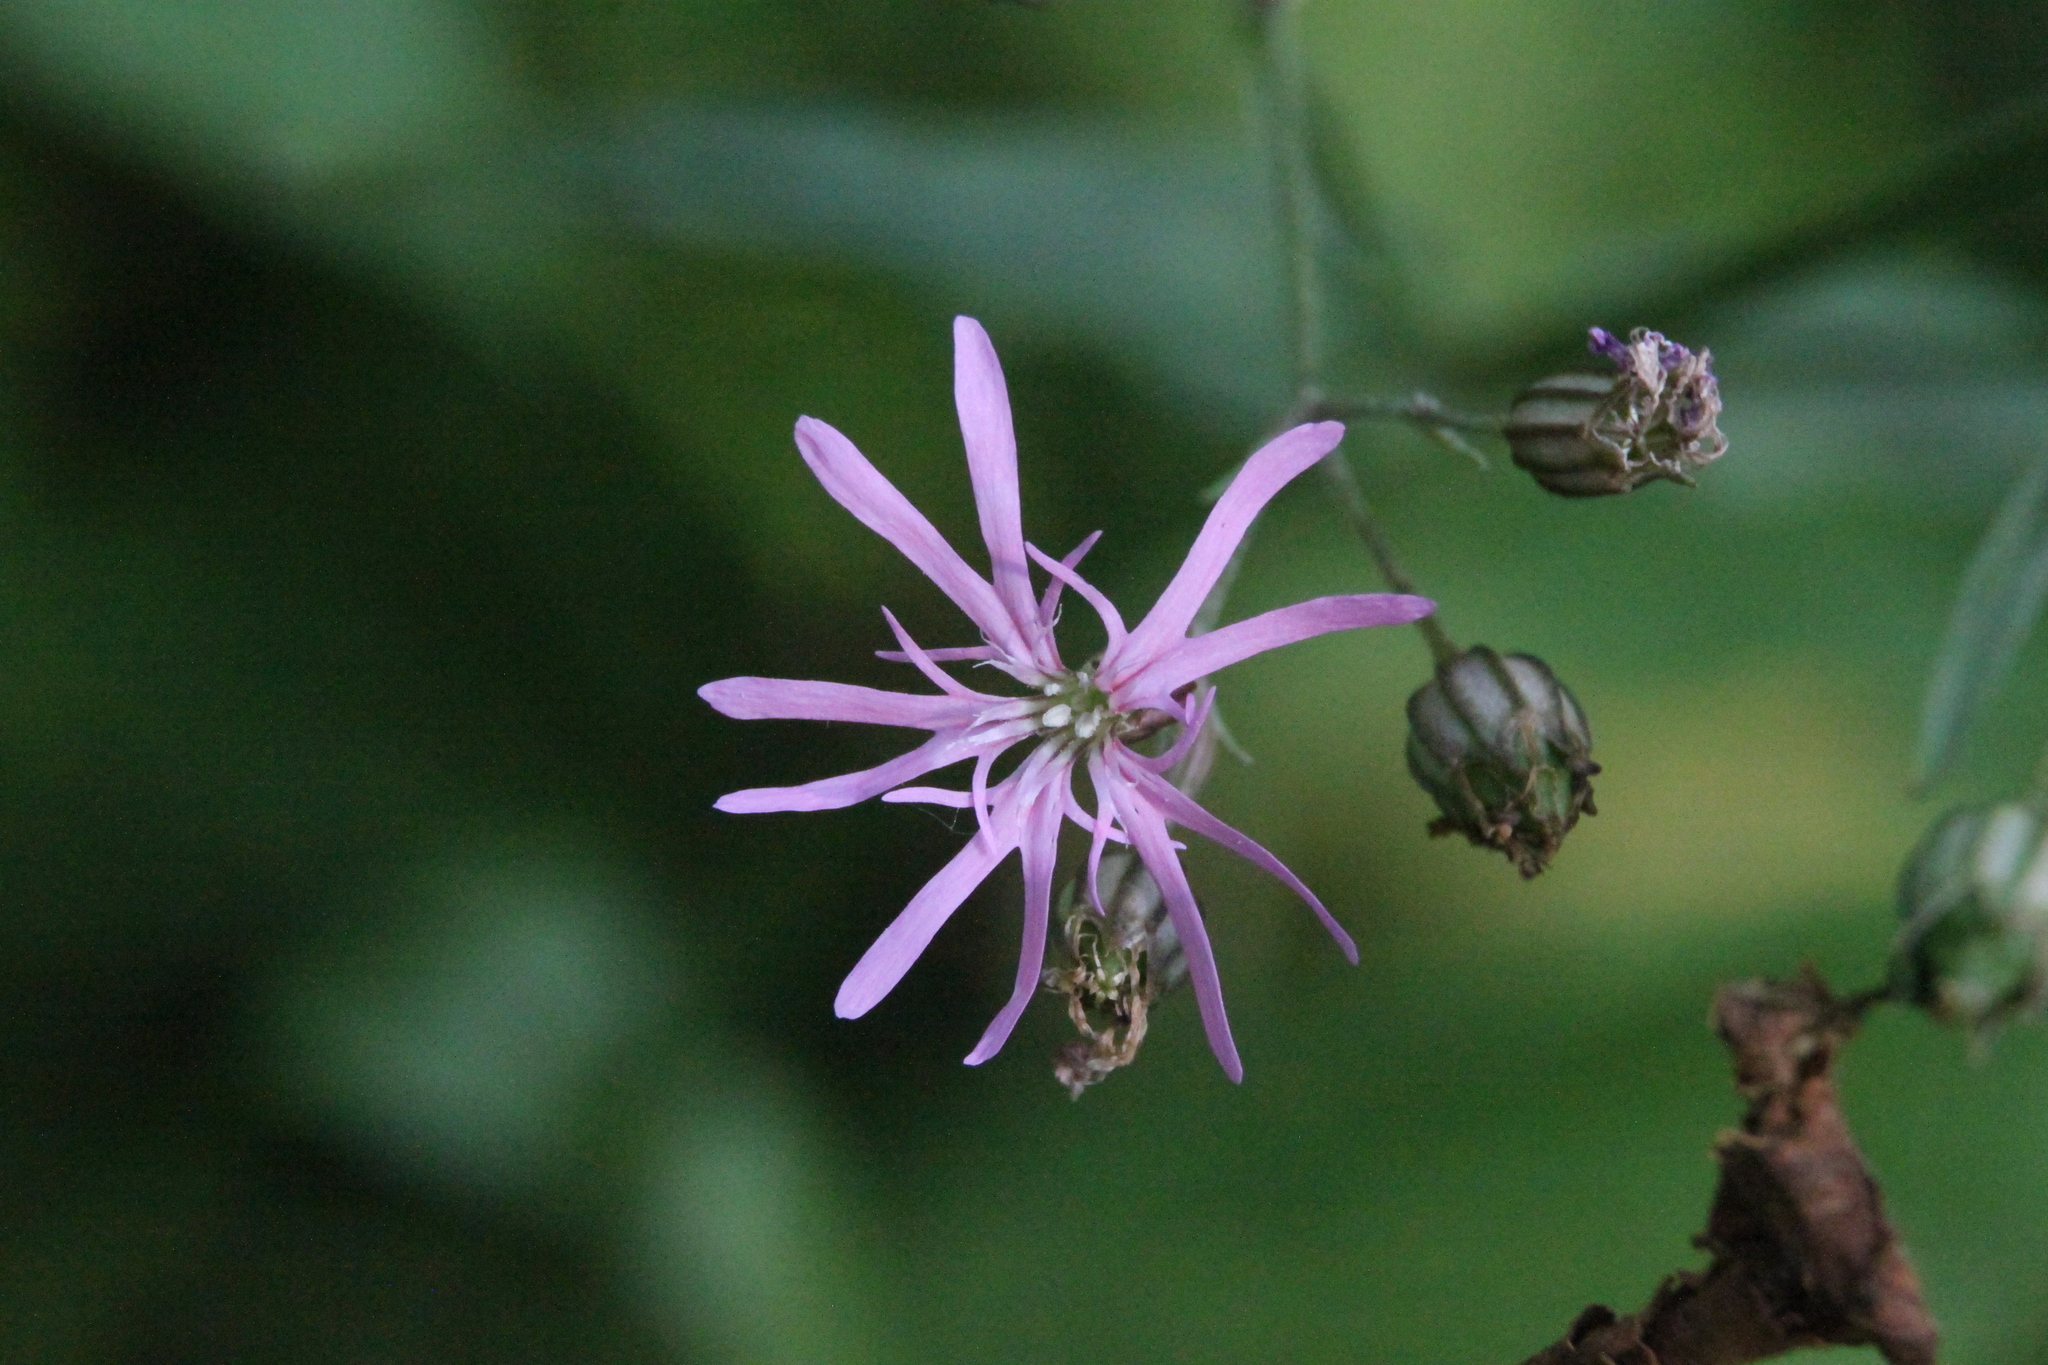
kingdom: Plantae
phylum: Tracheophyta
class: Magnoliopsida
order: Caryophyllales
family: Caryophyllaceae
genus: Silene
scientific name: Silene flos-cuculi
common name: Ragged-robin
